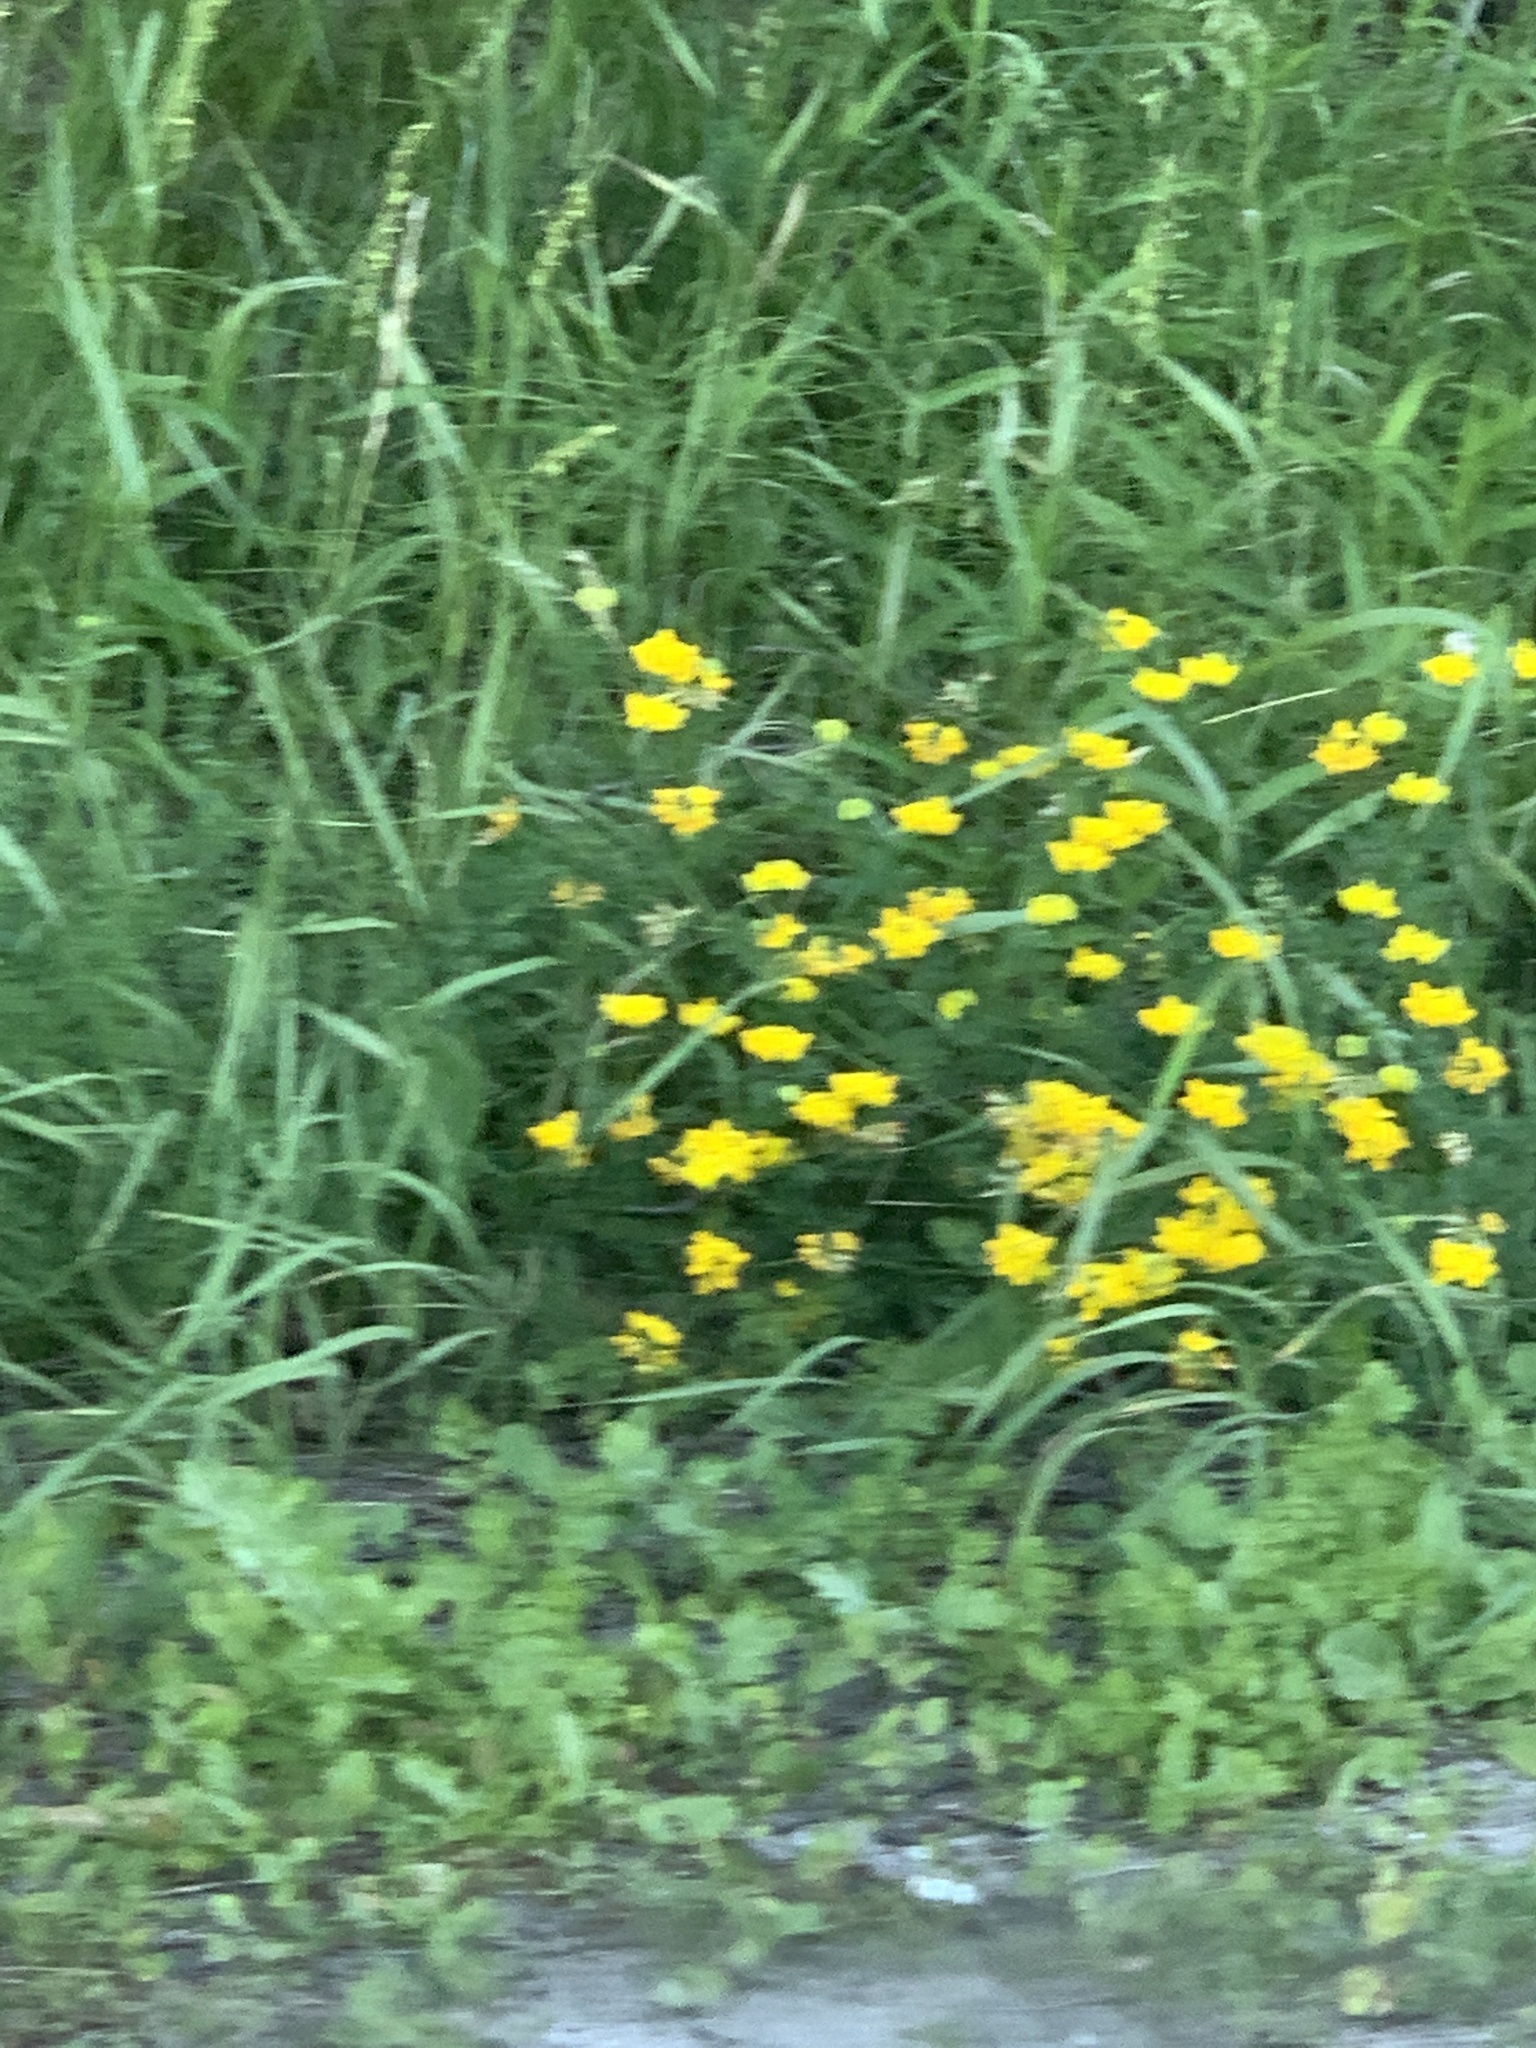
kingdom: Plantae
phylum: Tracheophyta
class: Magnoliopsida
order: Fabales
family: Fabaceae
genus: Lotus
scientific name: Lotus corniculatus
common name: Common bird's-foot-trefoil
